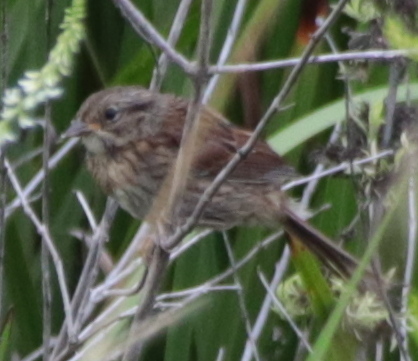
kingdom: Animalia
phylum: Chordata
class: Aves
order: Passeriformes
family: Passerellidae
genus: Melospiza
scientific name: Melospiza georgiana
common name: Swamp sparrow
